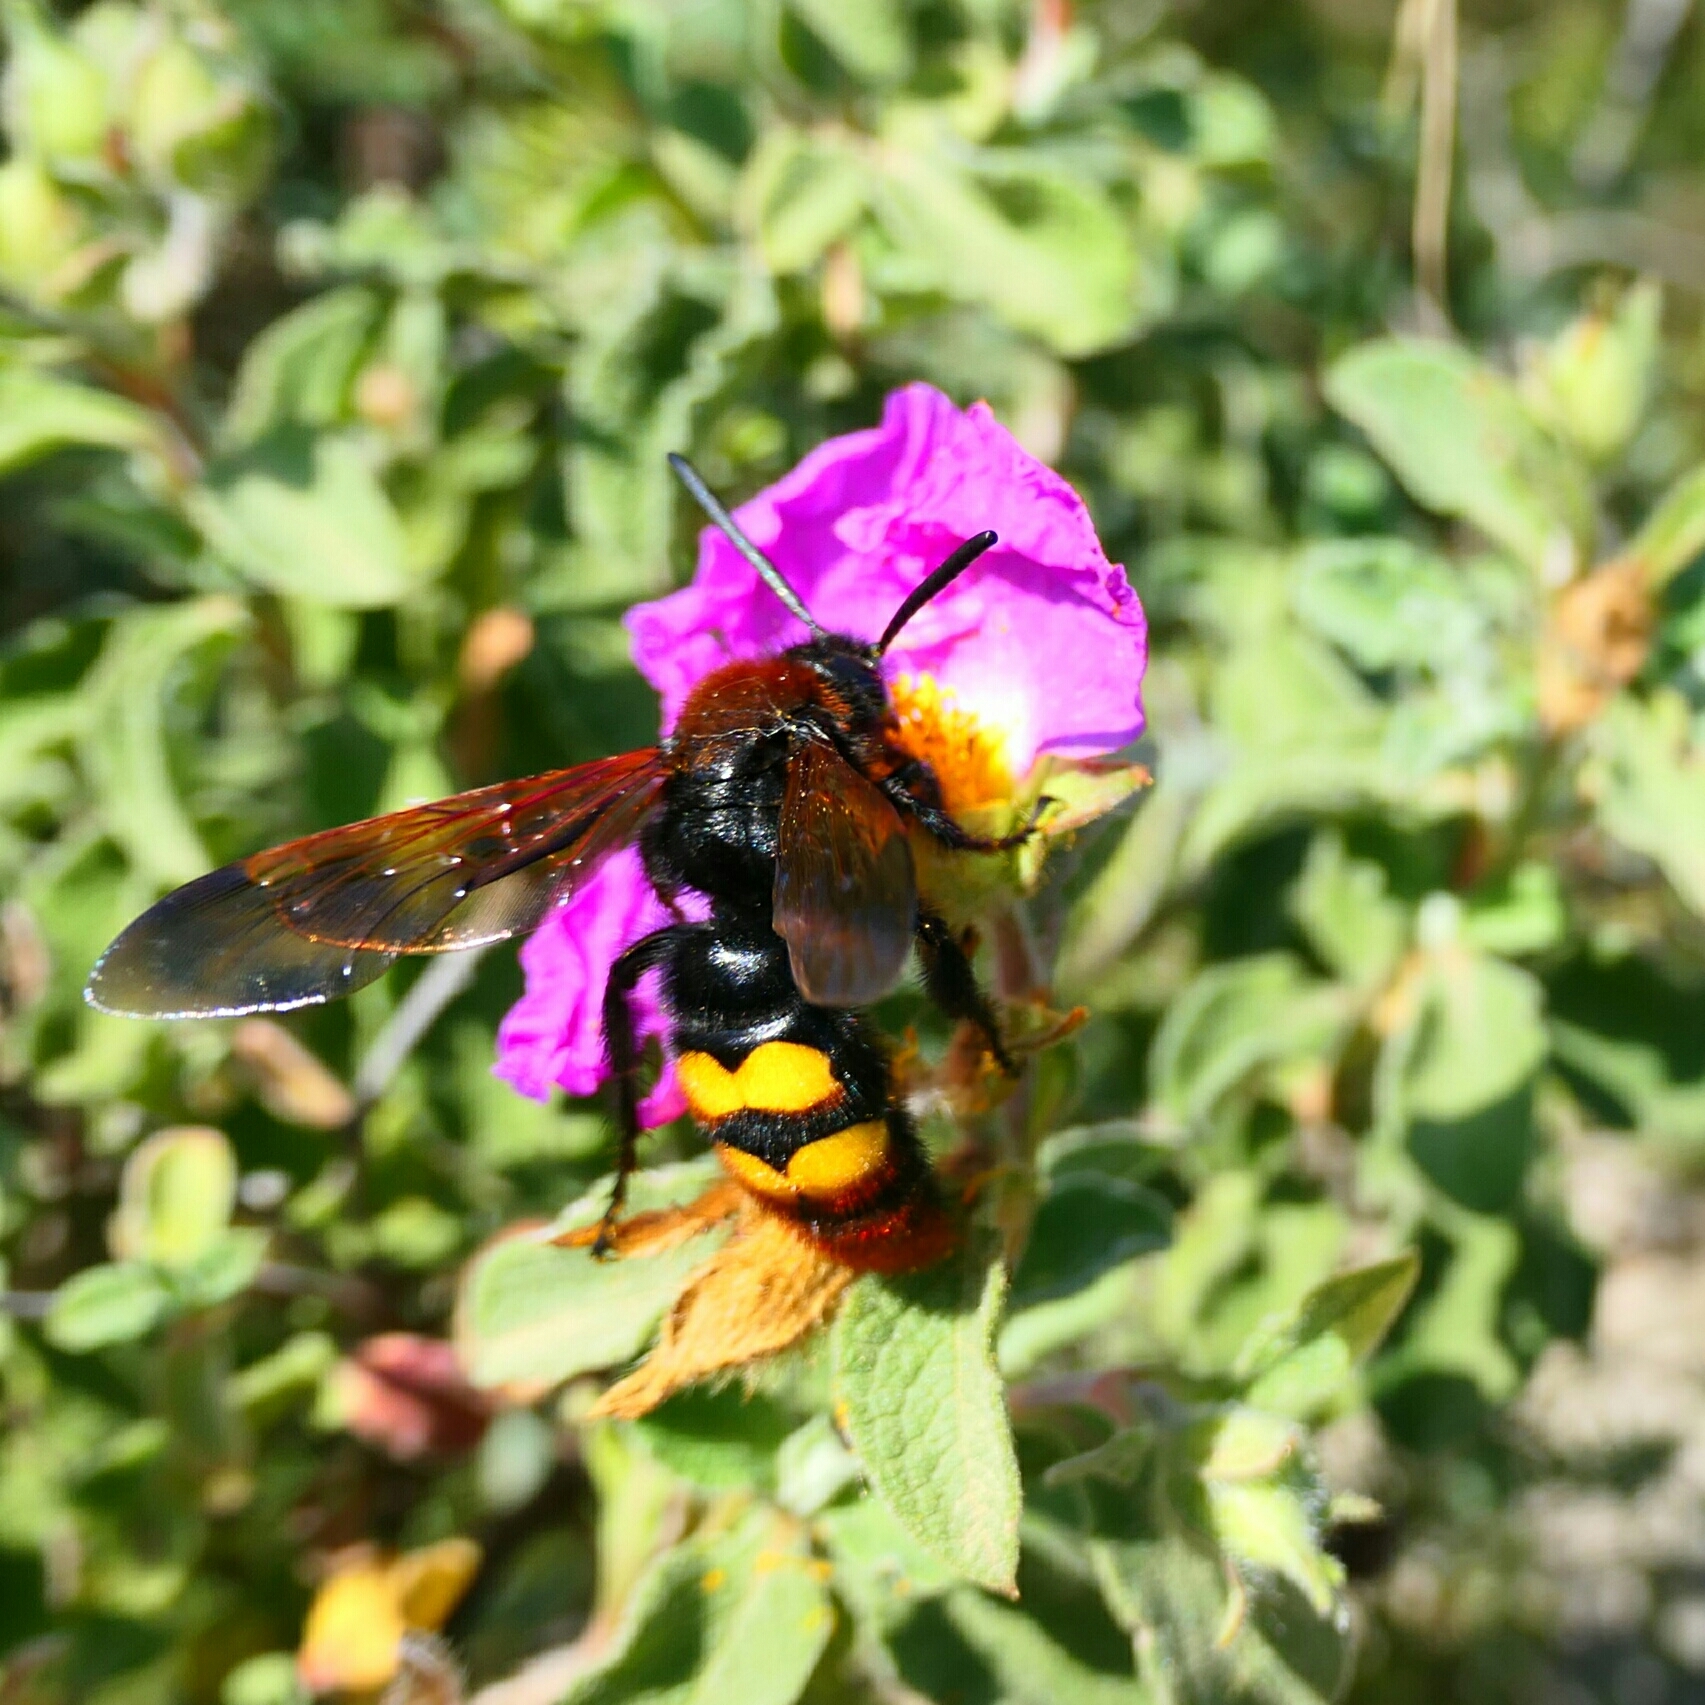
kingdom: Animalia
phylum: Arthropoda
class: Insecta
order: Hymenoptera
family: Scoliidae
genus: Megascolia
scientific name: Megascolia maculata
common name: Mammoth wasp
